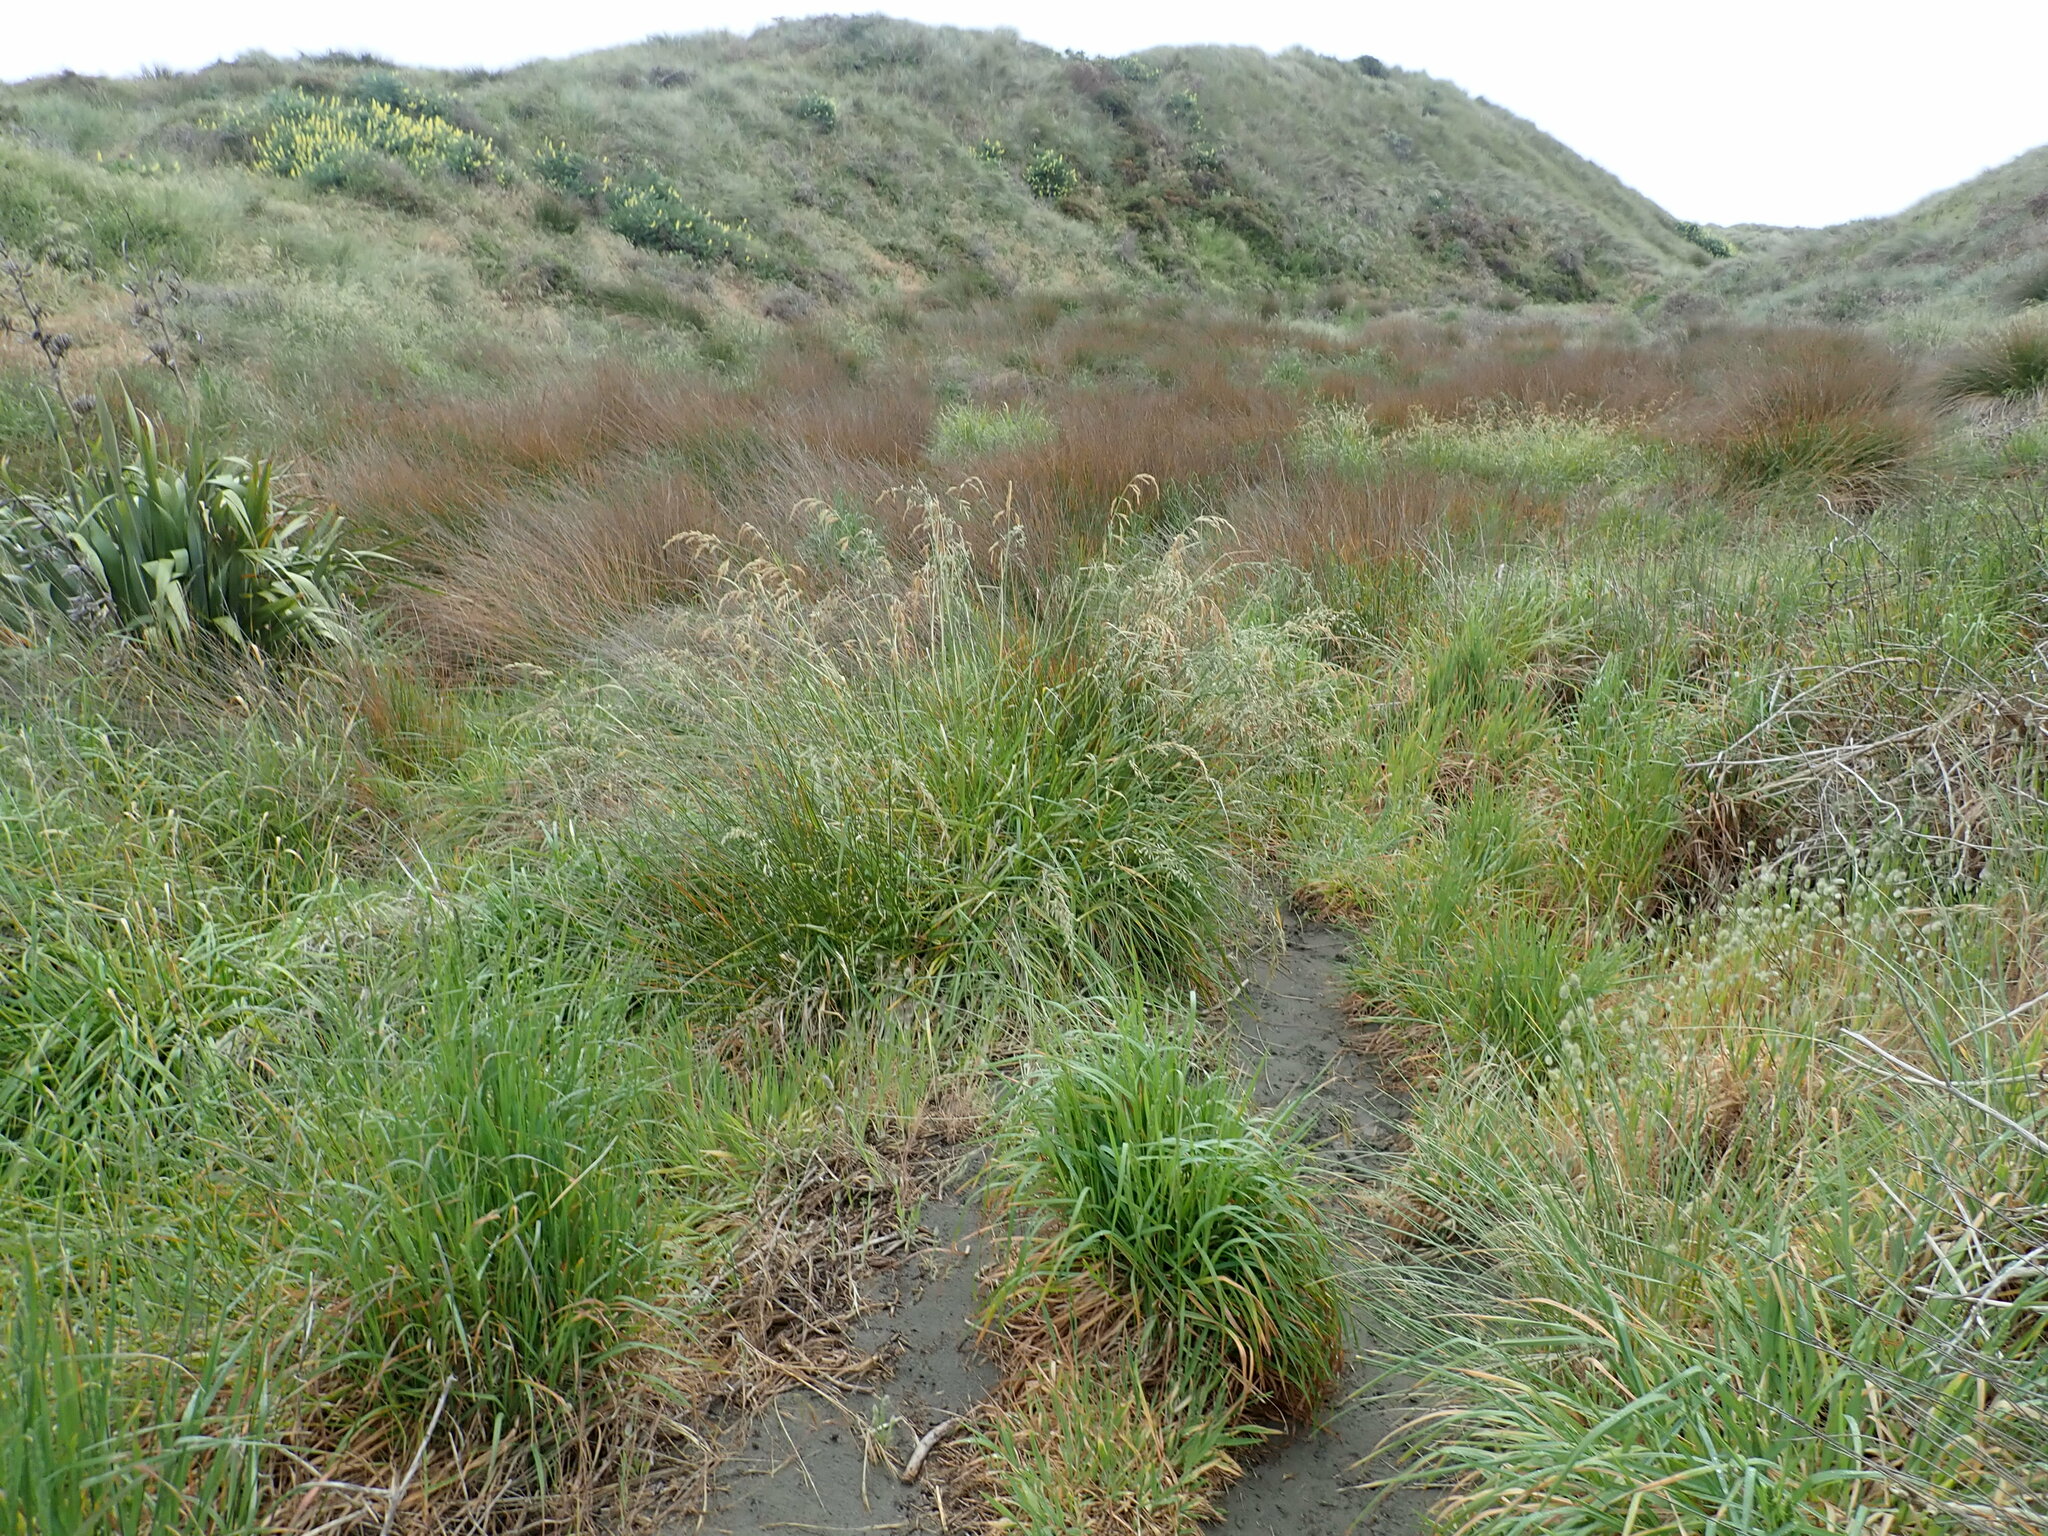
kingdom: Plantae
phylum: Tracheophyta
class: Liliopsida
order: Poales
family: Poaceae
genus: Lolium
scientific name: Lolium arundinaceum
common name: Reed fescue
